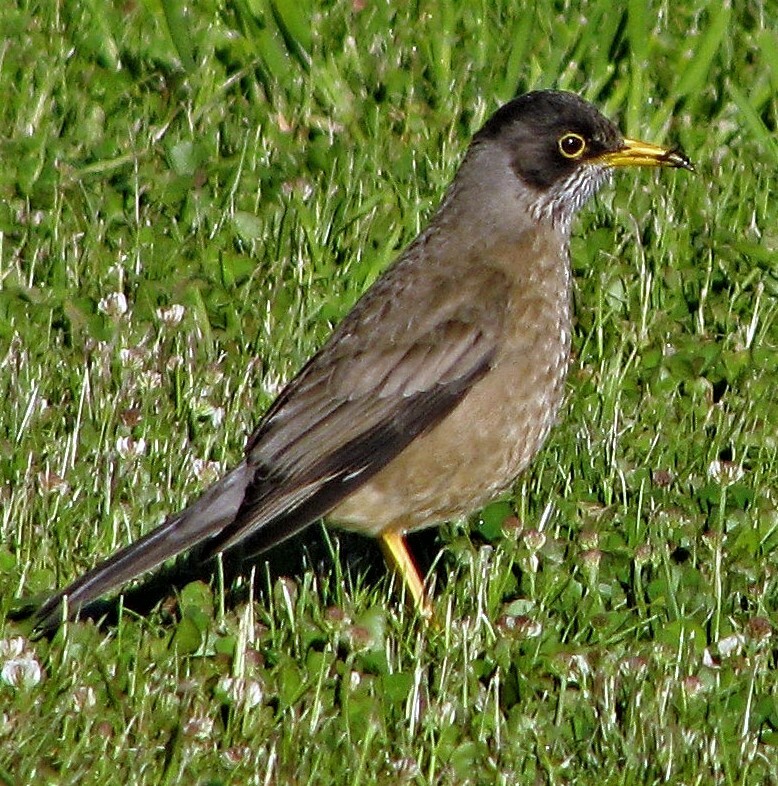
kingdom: Animalia
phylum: Chordata
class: Aves
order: Passeriformes
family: Turdidae
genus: Turdus
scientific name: Turdus falcklandii
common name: Austral thrush
